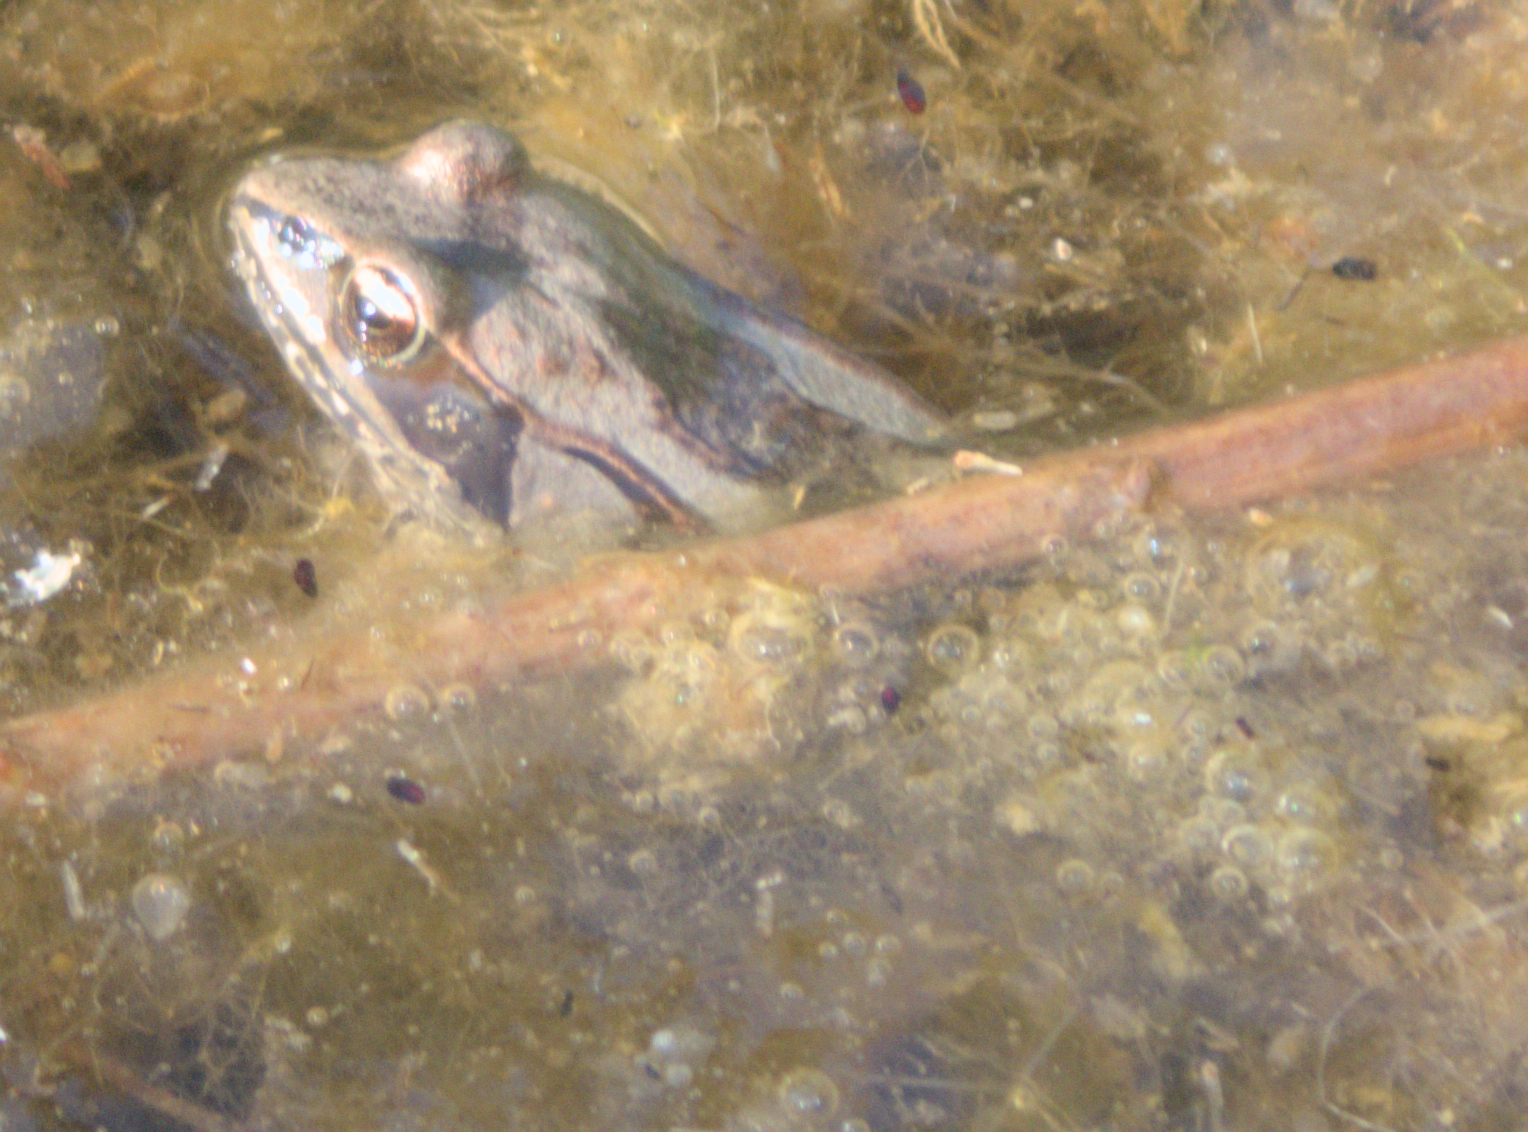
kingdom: Animalia
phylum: Chordata
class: Amphibia
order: Anura
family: Ranidae
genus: Lithobates
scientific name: Lithobates sylvaticus
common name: Wood frog
